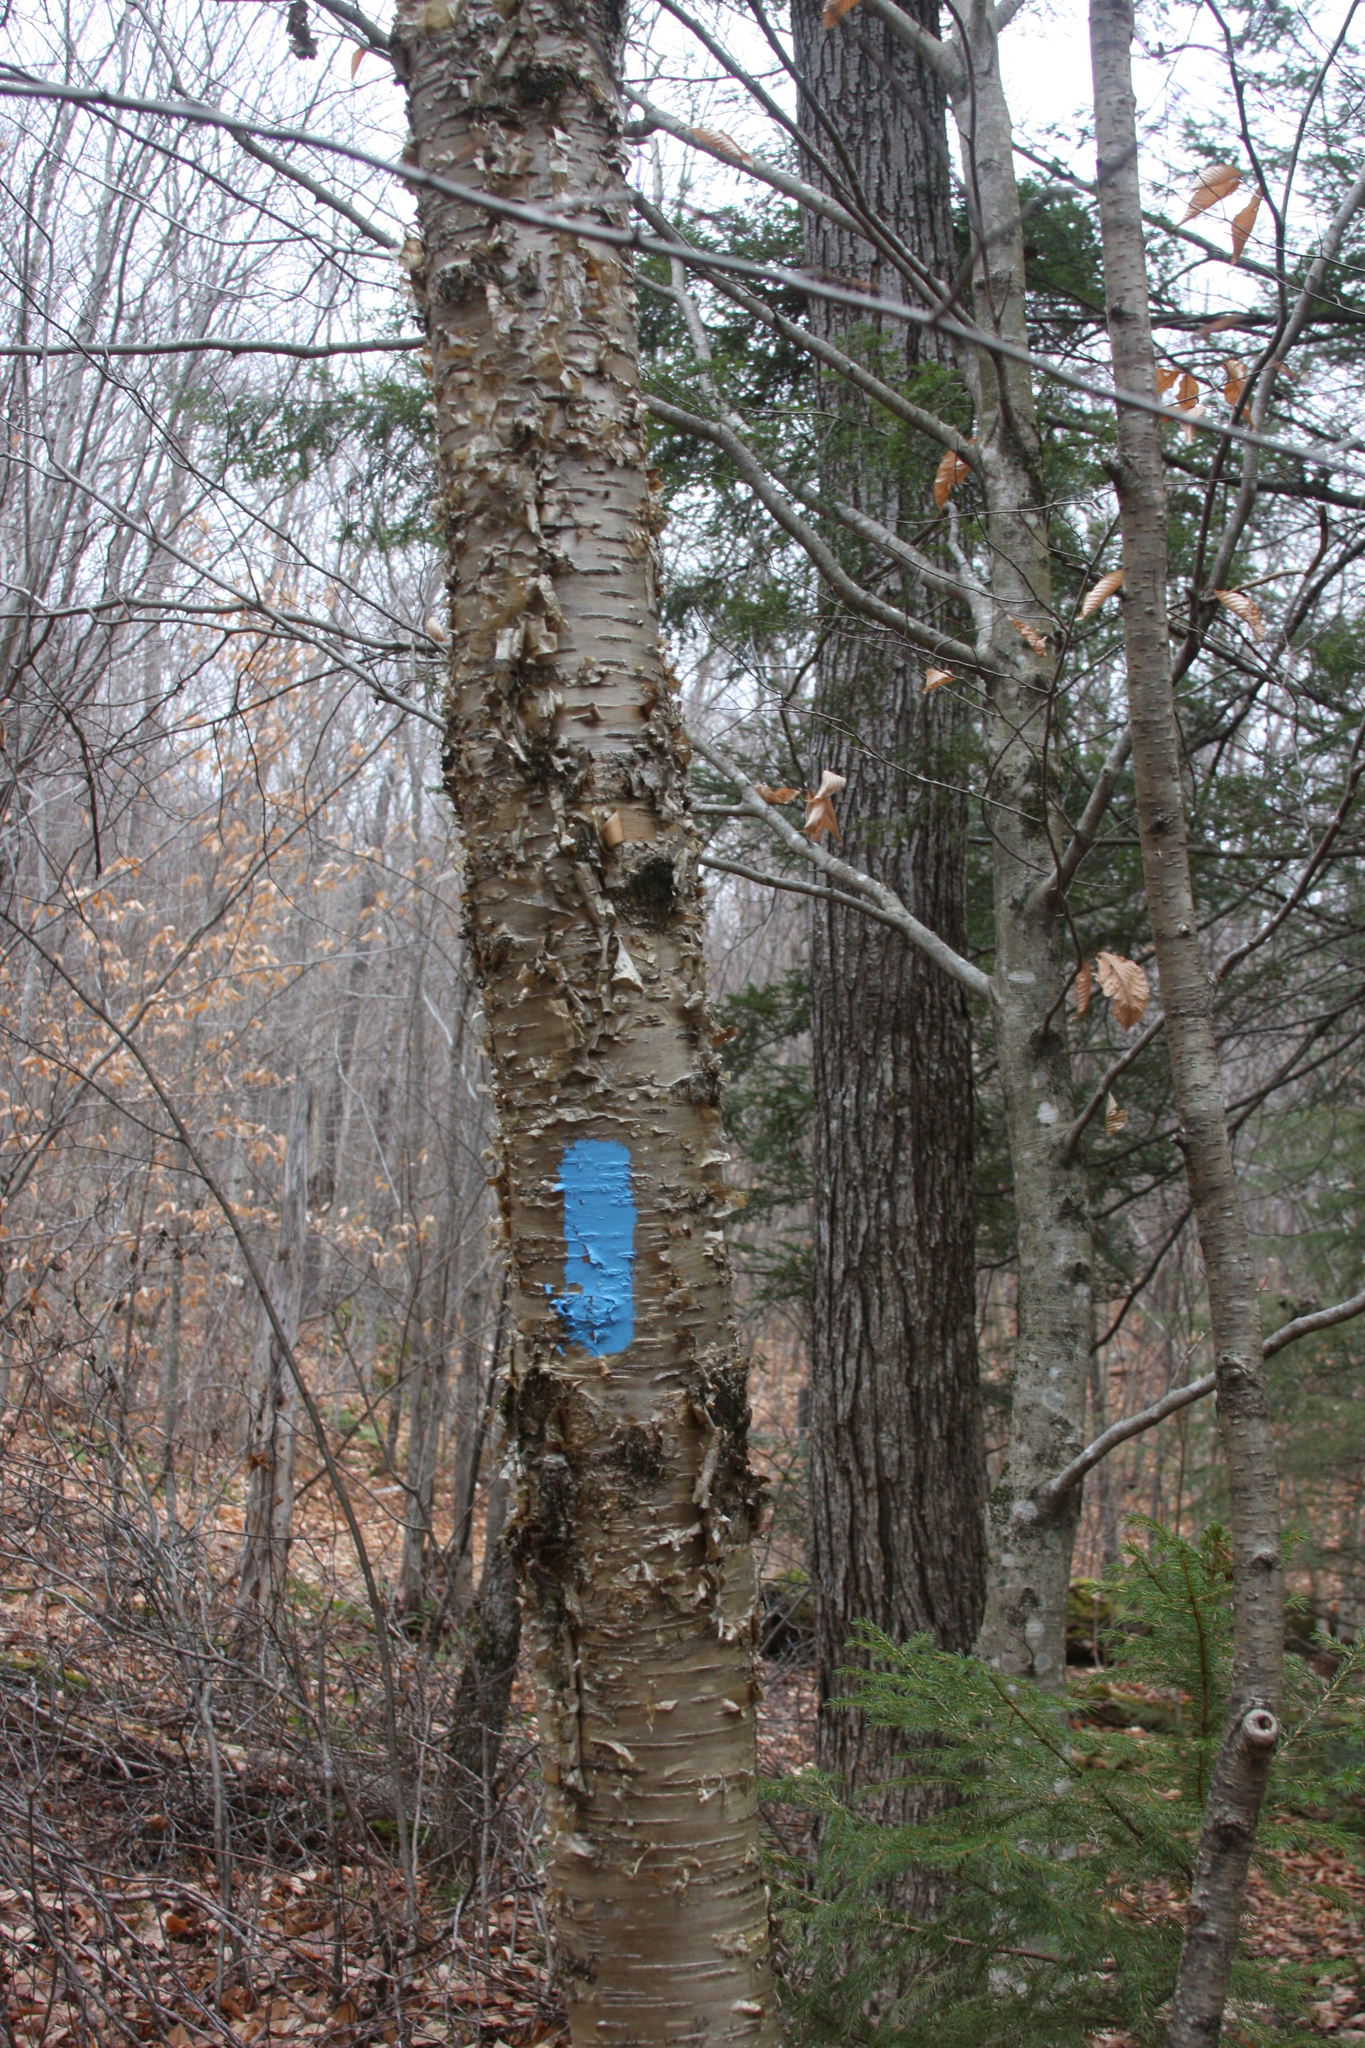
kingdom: Plantae
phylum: Tracheophyta
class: Magnoliopsida
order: Fagales
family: Betulaceae
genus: Betula
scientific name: Betula alleghaniensis
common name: Yellow birch
